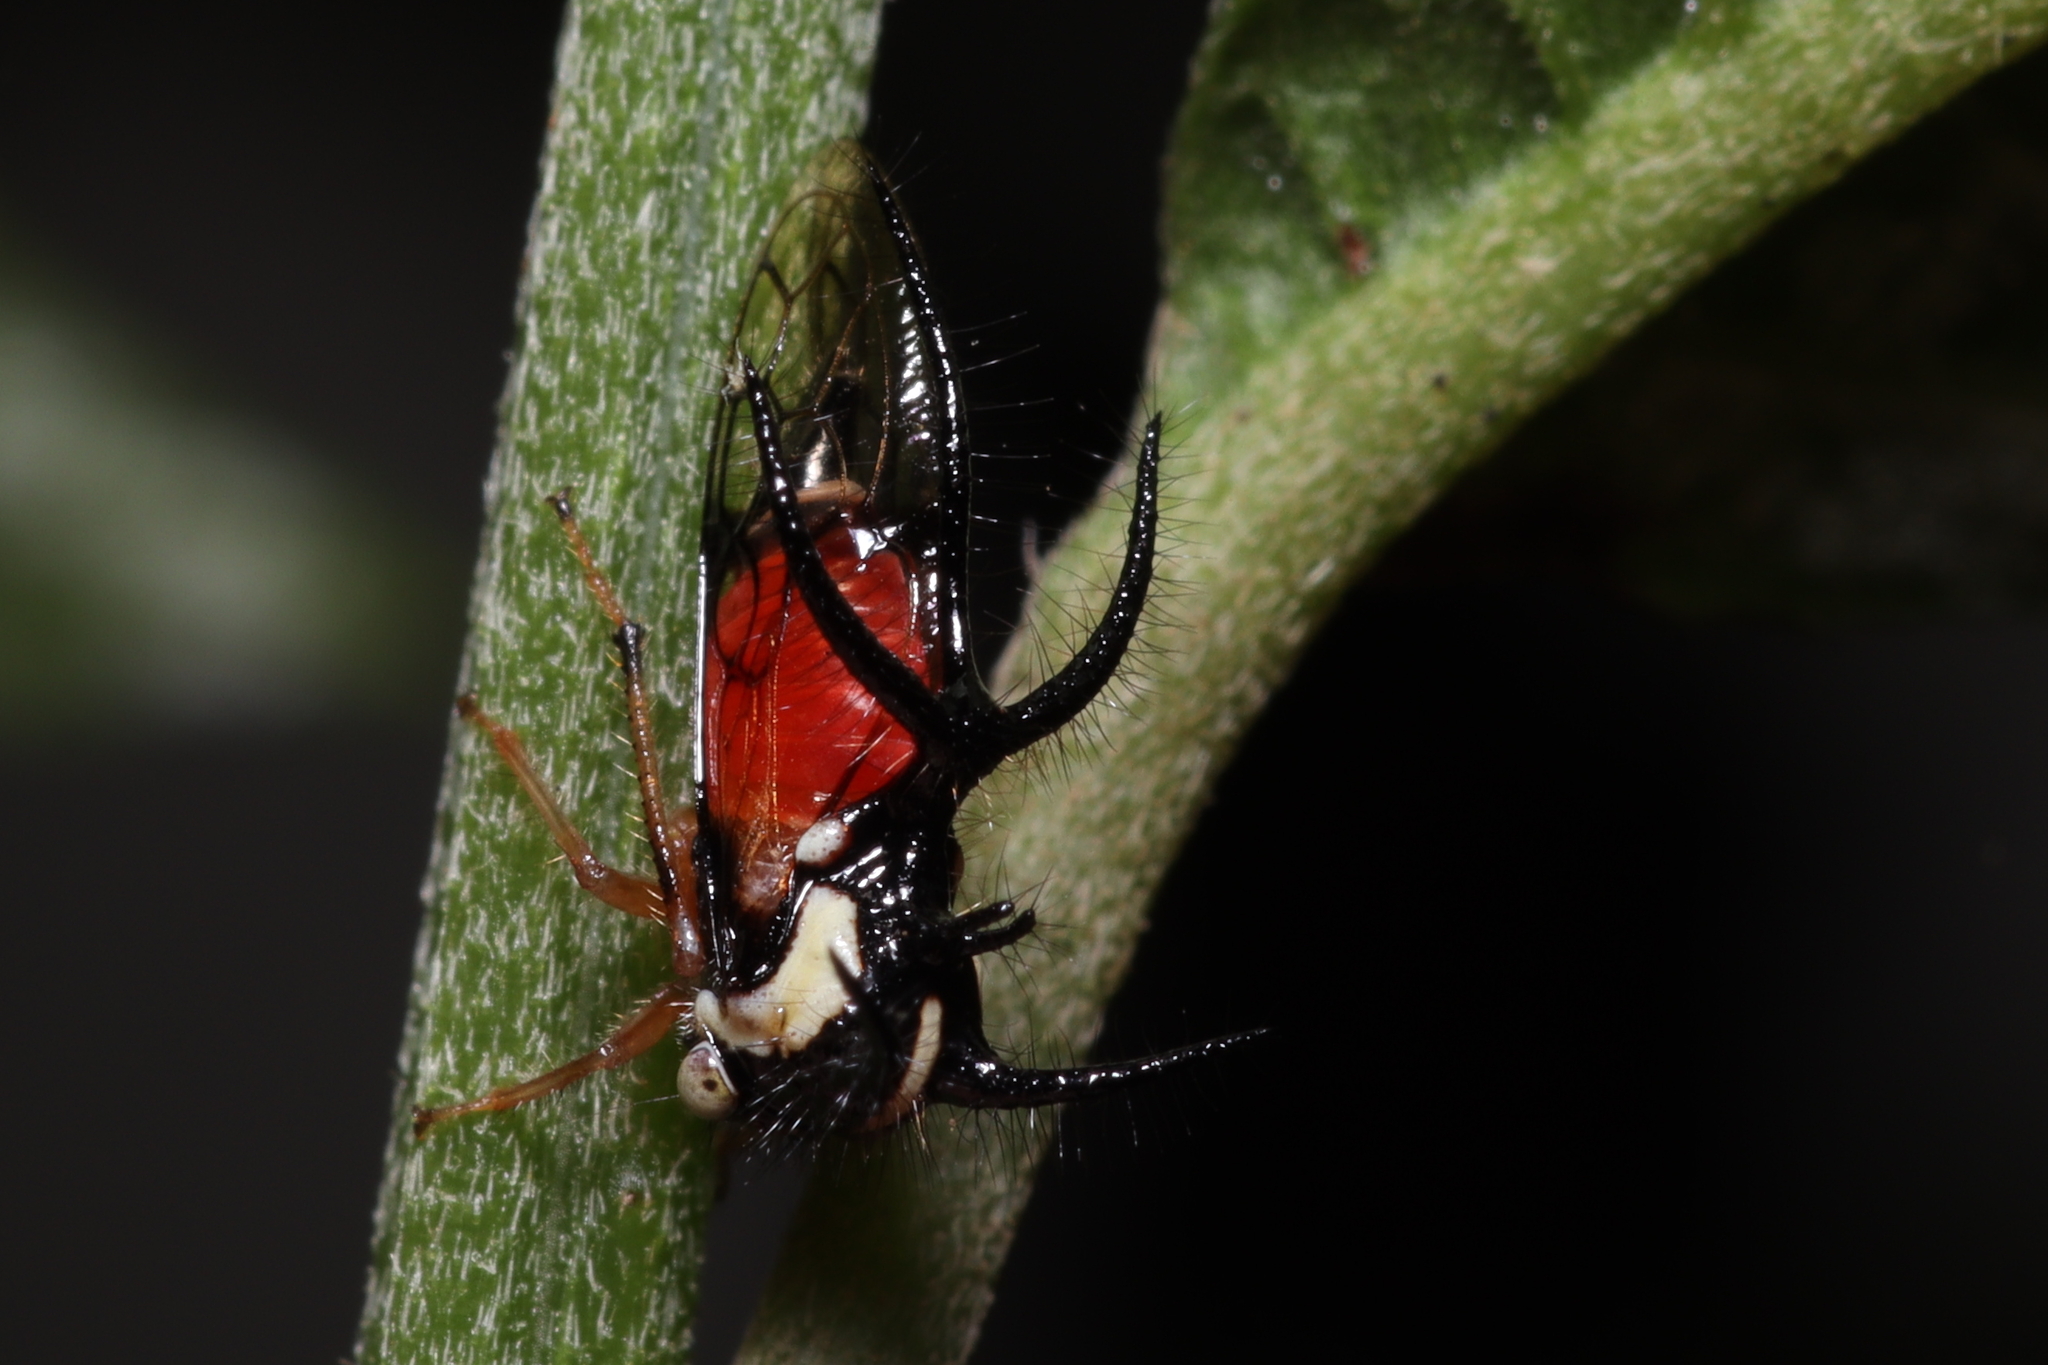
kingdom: Animalia
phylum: Arthropoda
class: Insecta
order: Hemiptera
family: Membracidae
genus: Cyphonia
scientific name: Cyphonia trifida
